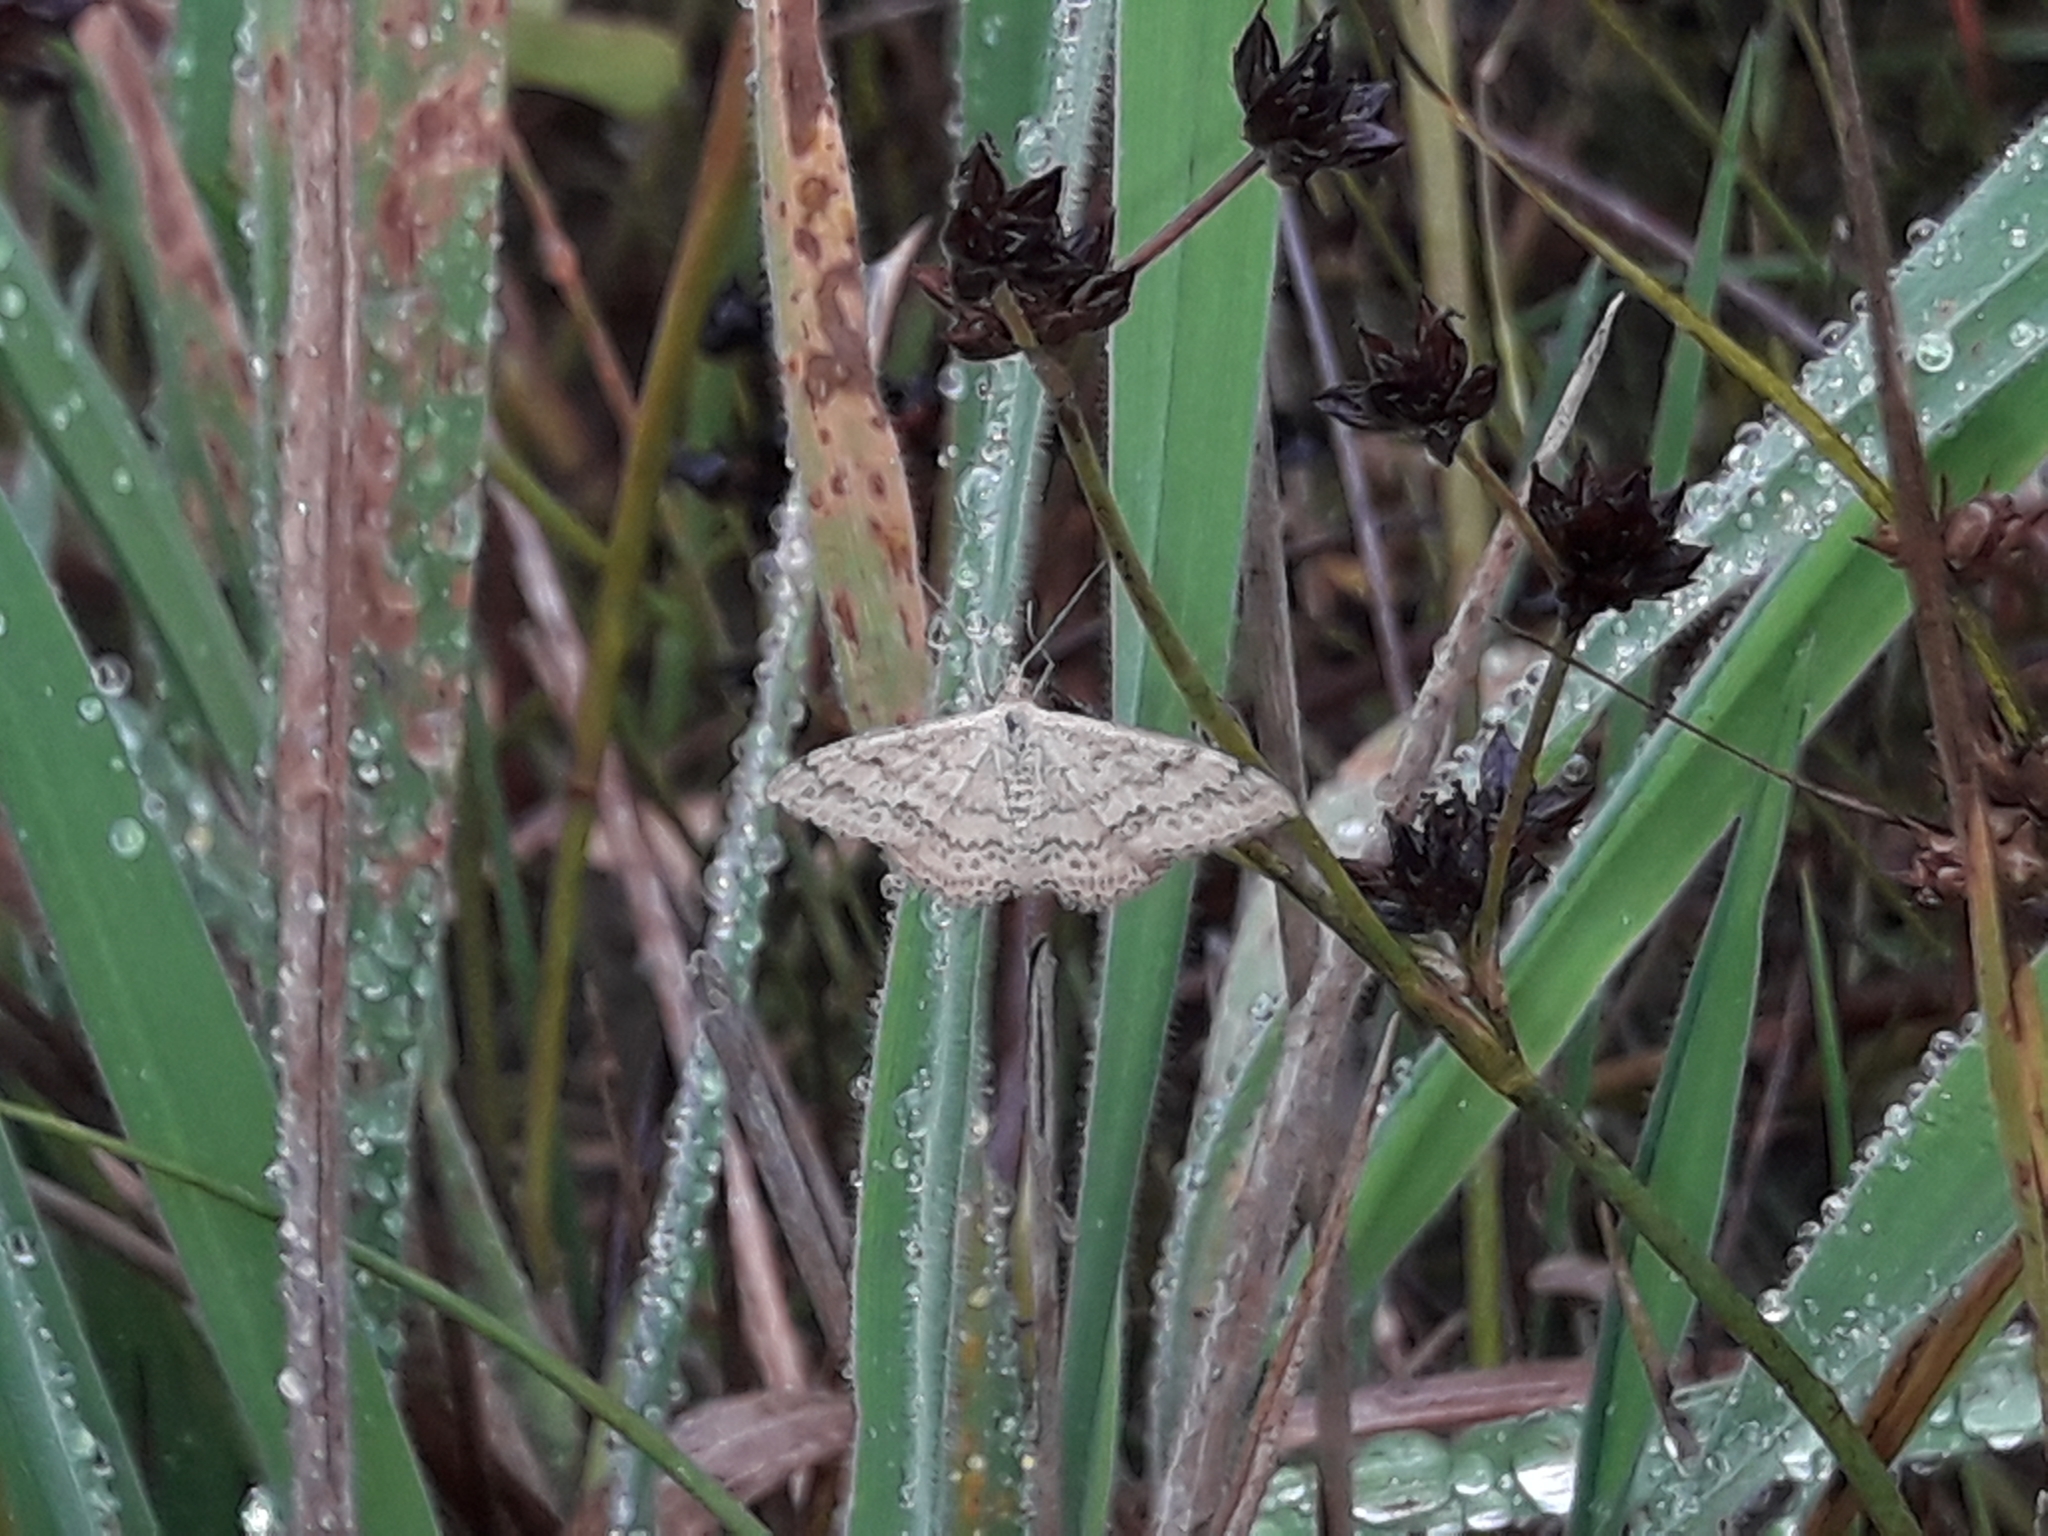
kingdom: Animalia
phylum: Arthropoda
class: Insecta
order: Lepidoptera
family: Geometridae
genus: Scopula
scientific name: Scopula rubraria
